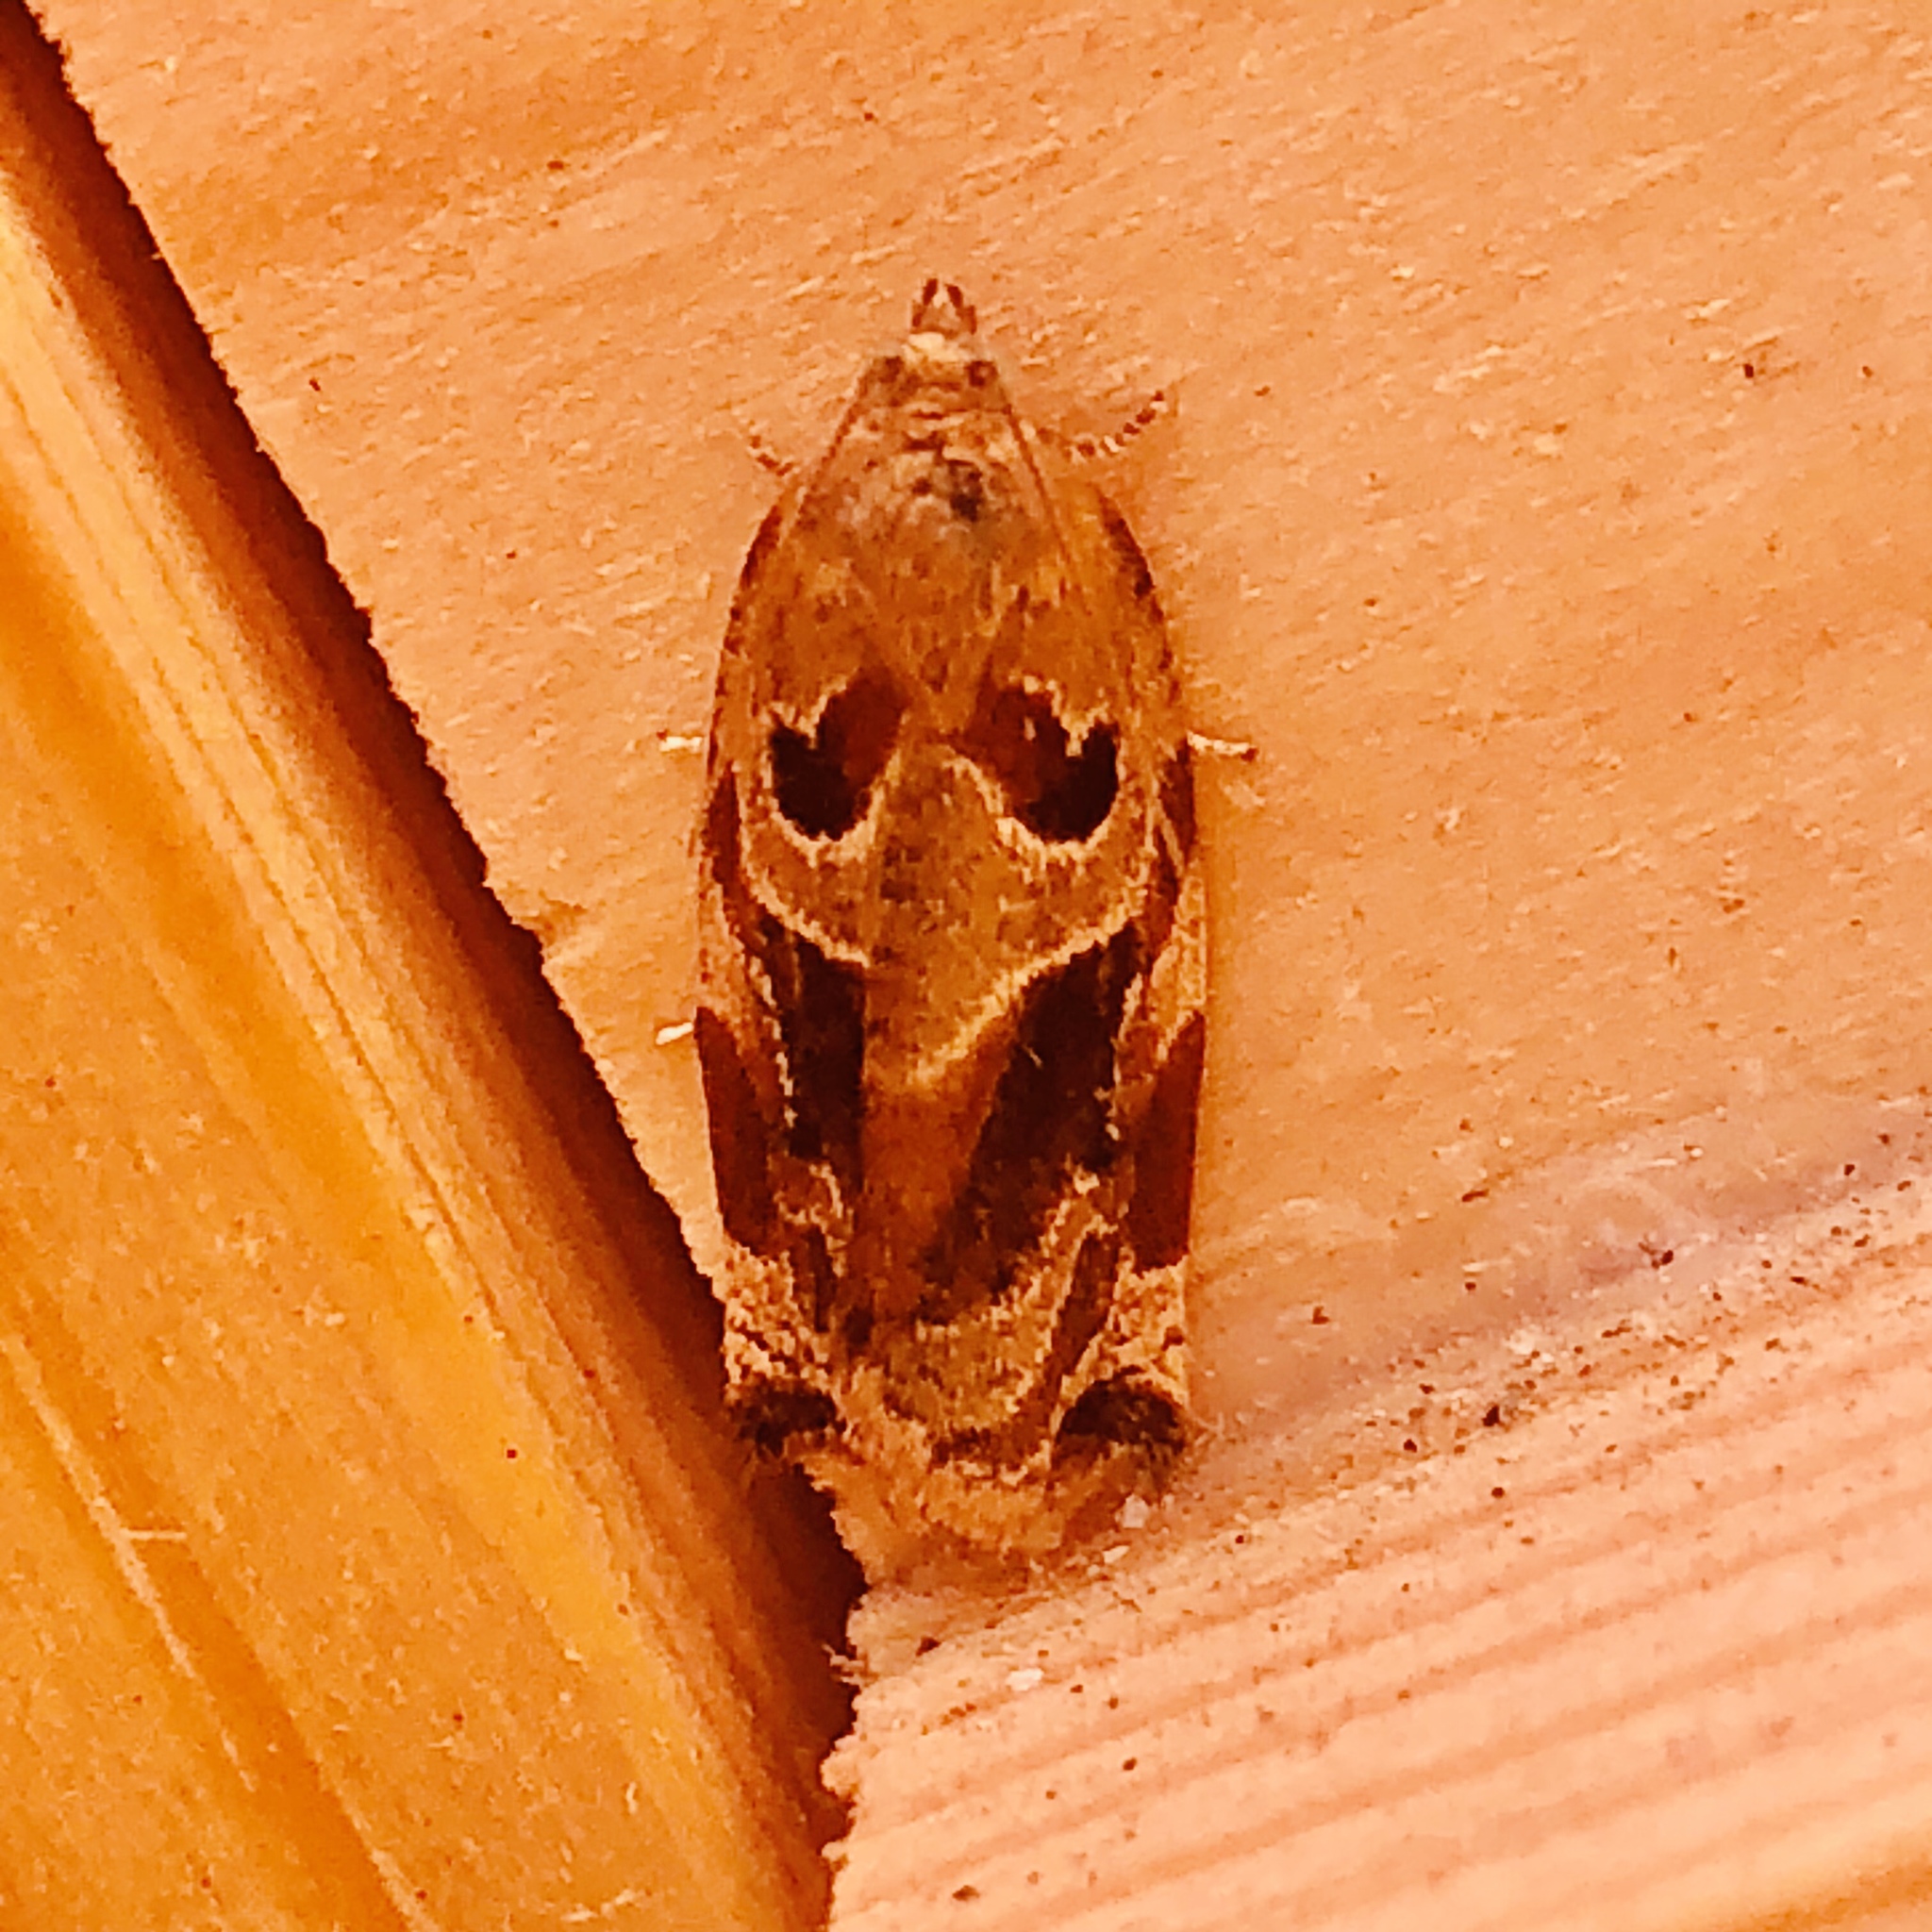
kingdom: Animalia
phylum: Arthropoda
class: Insecta
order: Lepidoptera
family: Tortricidae
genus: Archips
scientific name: Archips xylosteana
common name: Variegated golden tortrix
